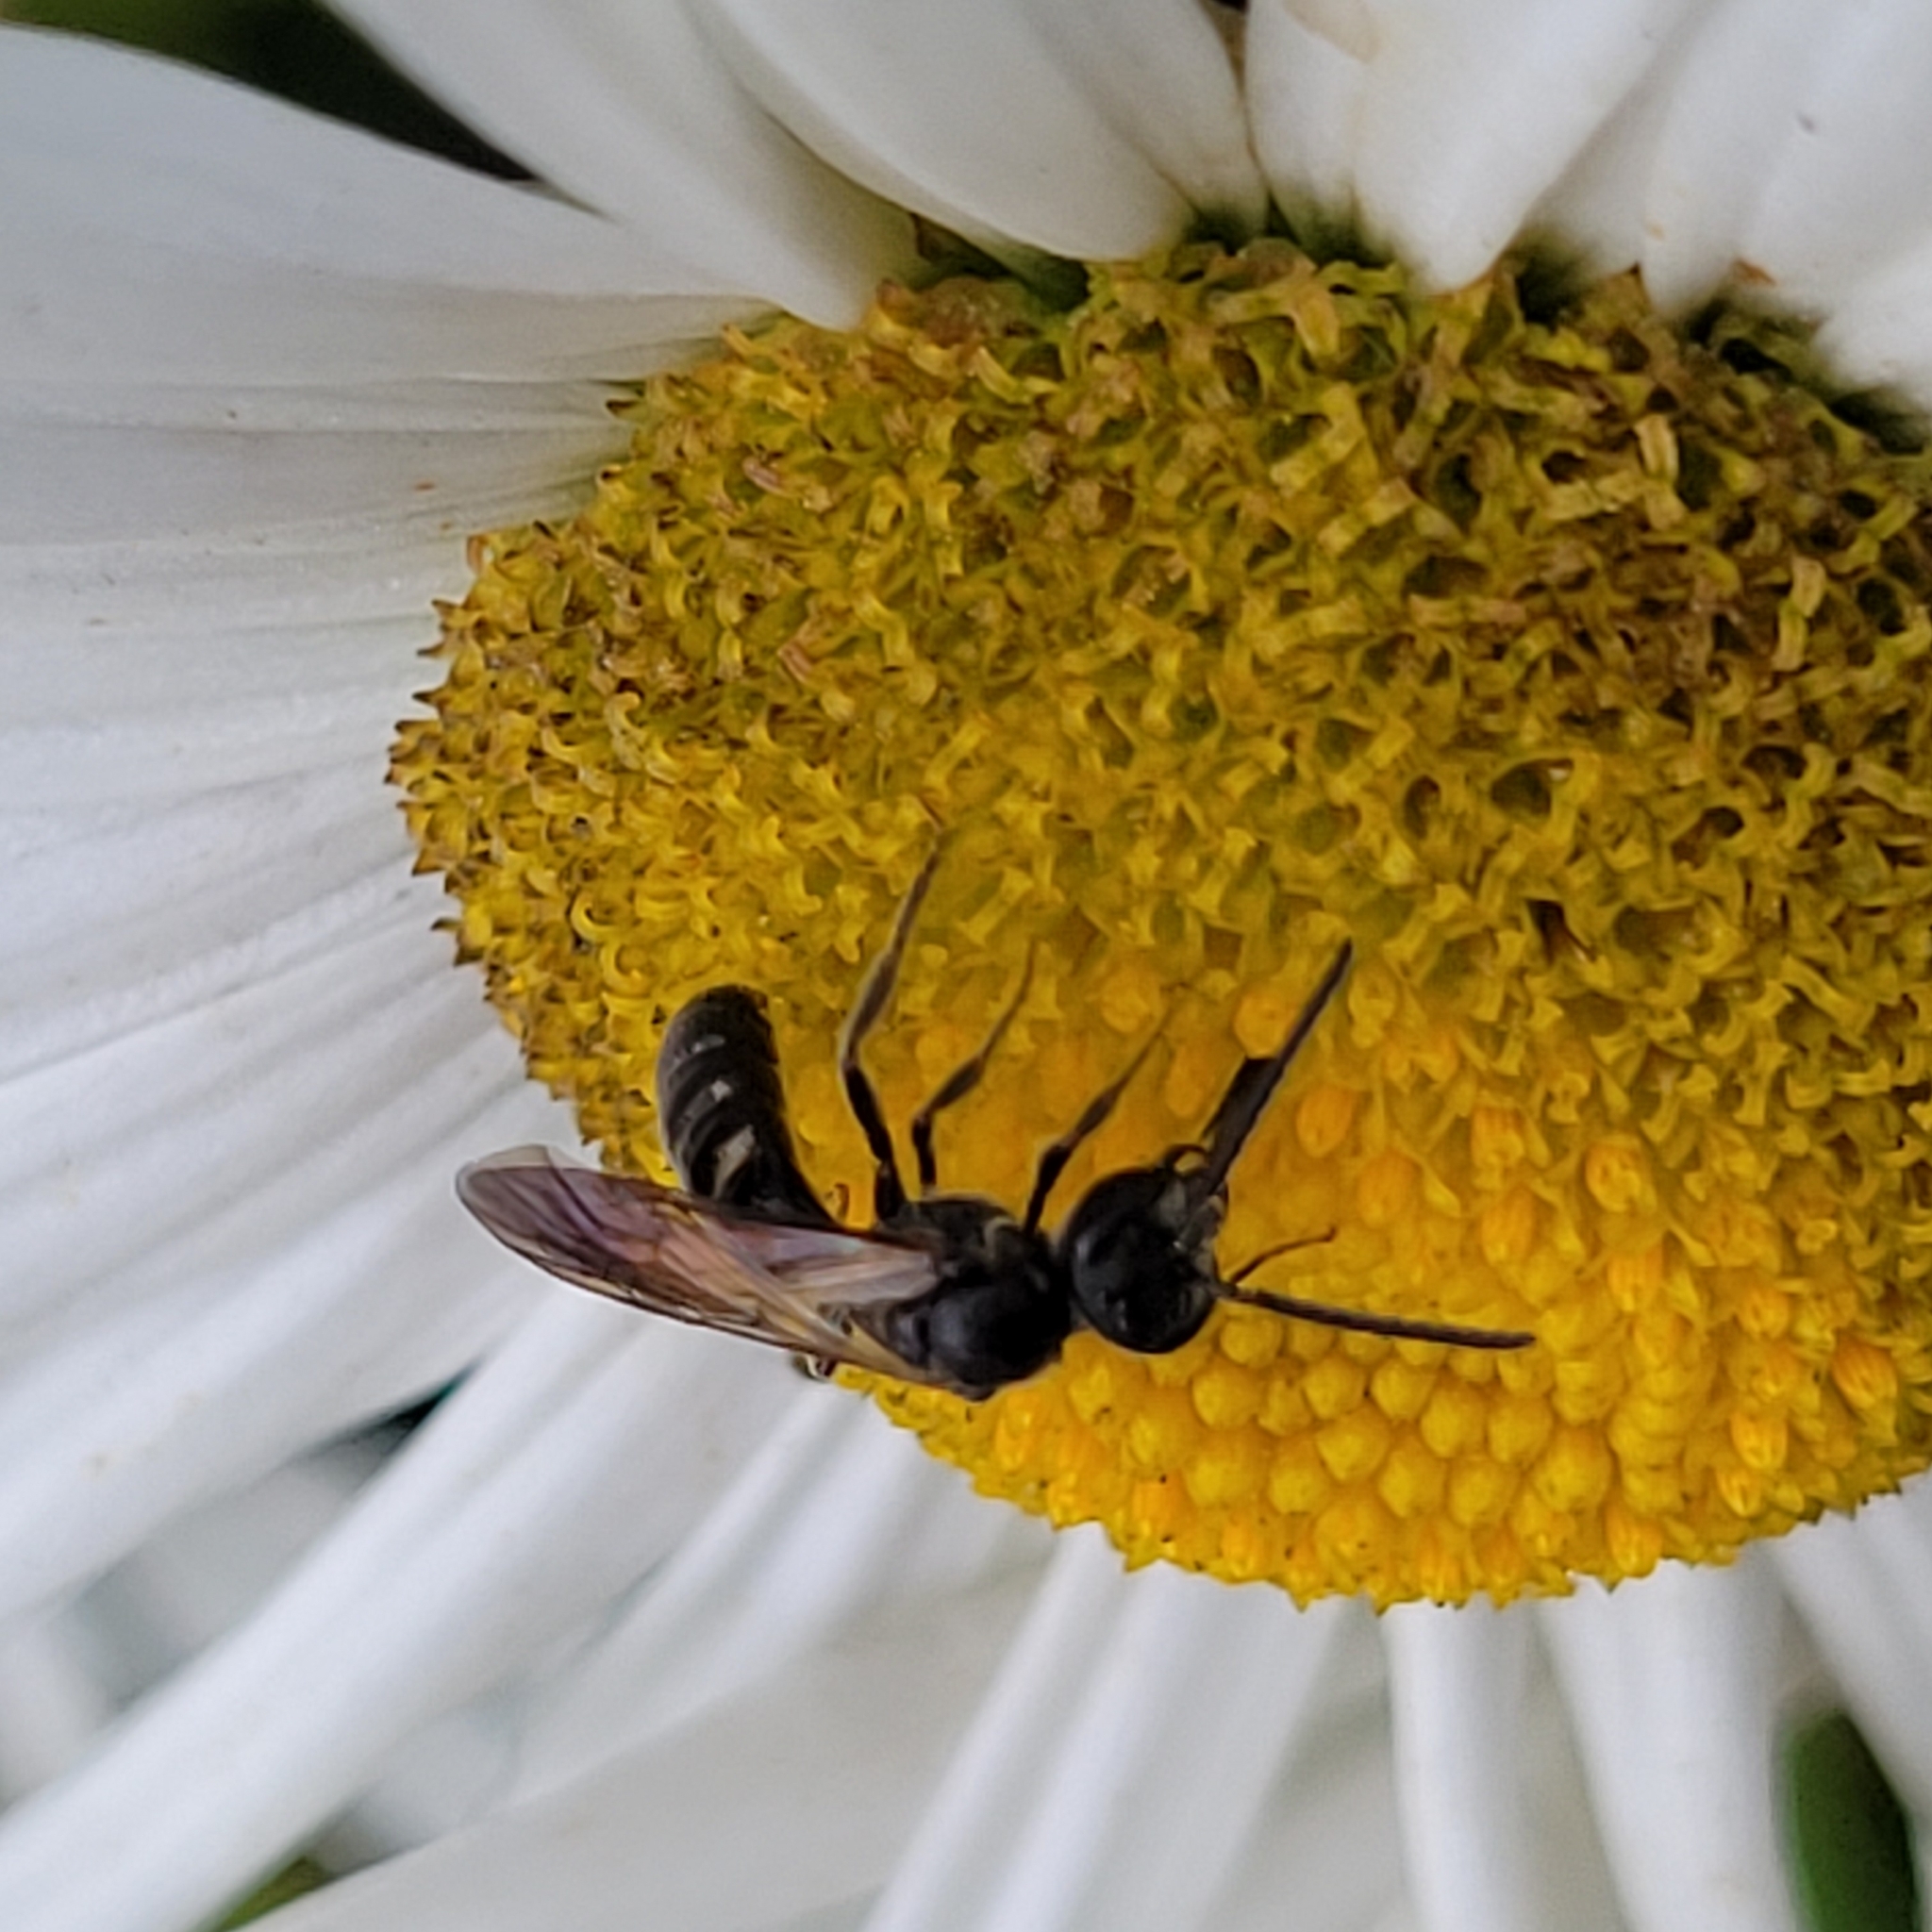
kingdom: Animalia
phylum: Arthropoda
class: Insecta
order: Hymenoptera
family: Halictidae
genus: Lasioglossum
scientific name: Lasioglossum fuscipenne
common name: Brown-winged sweat bee
